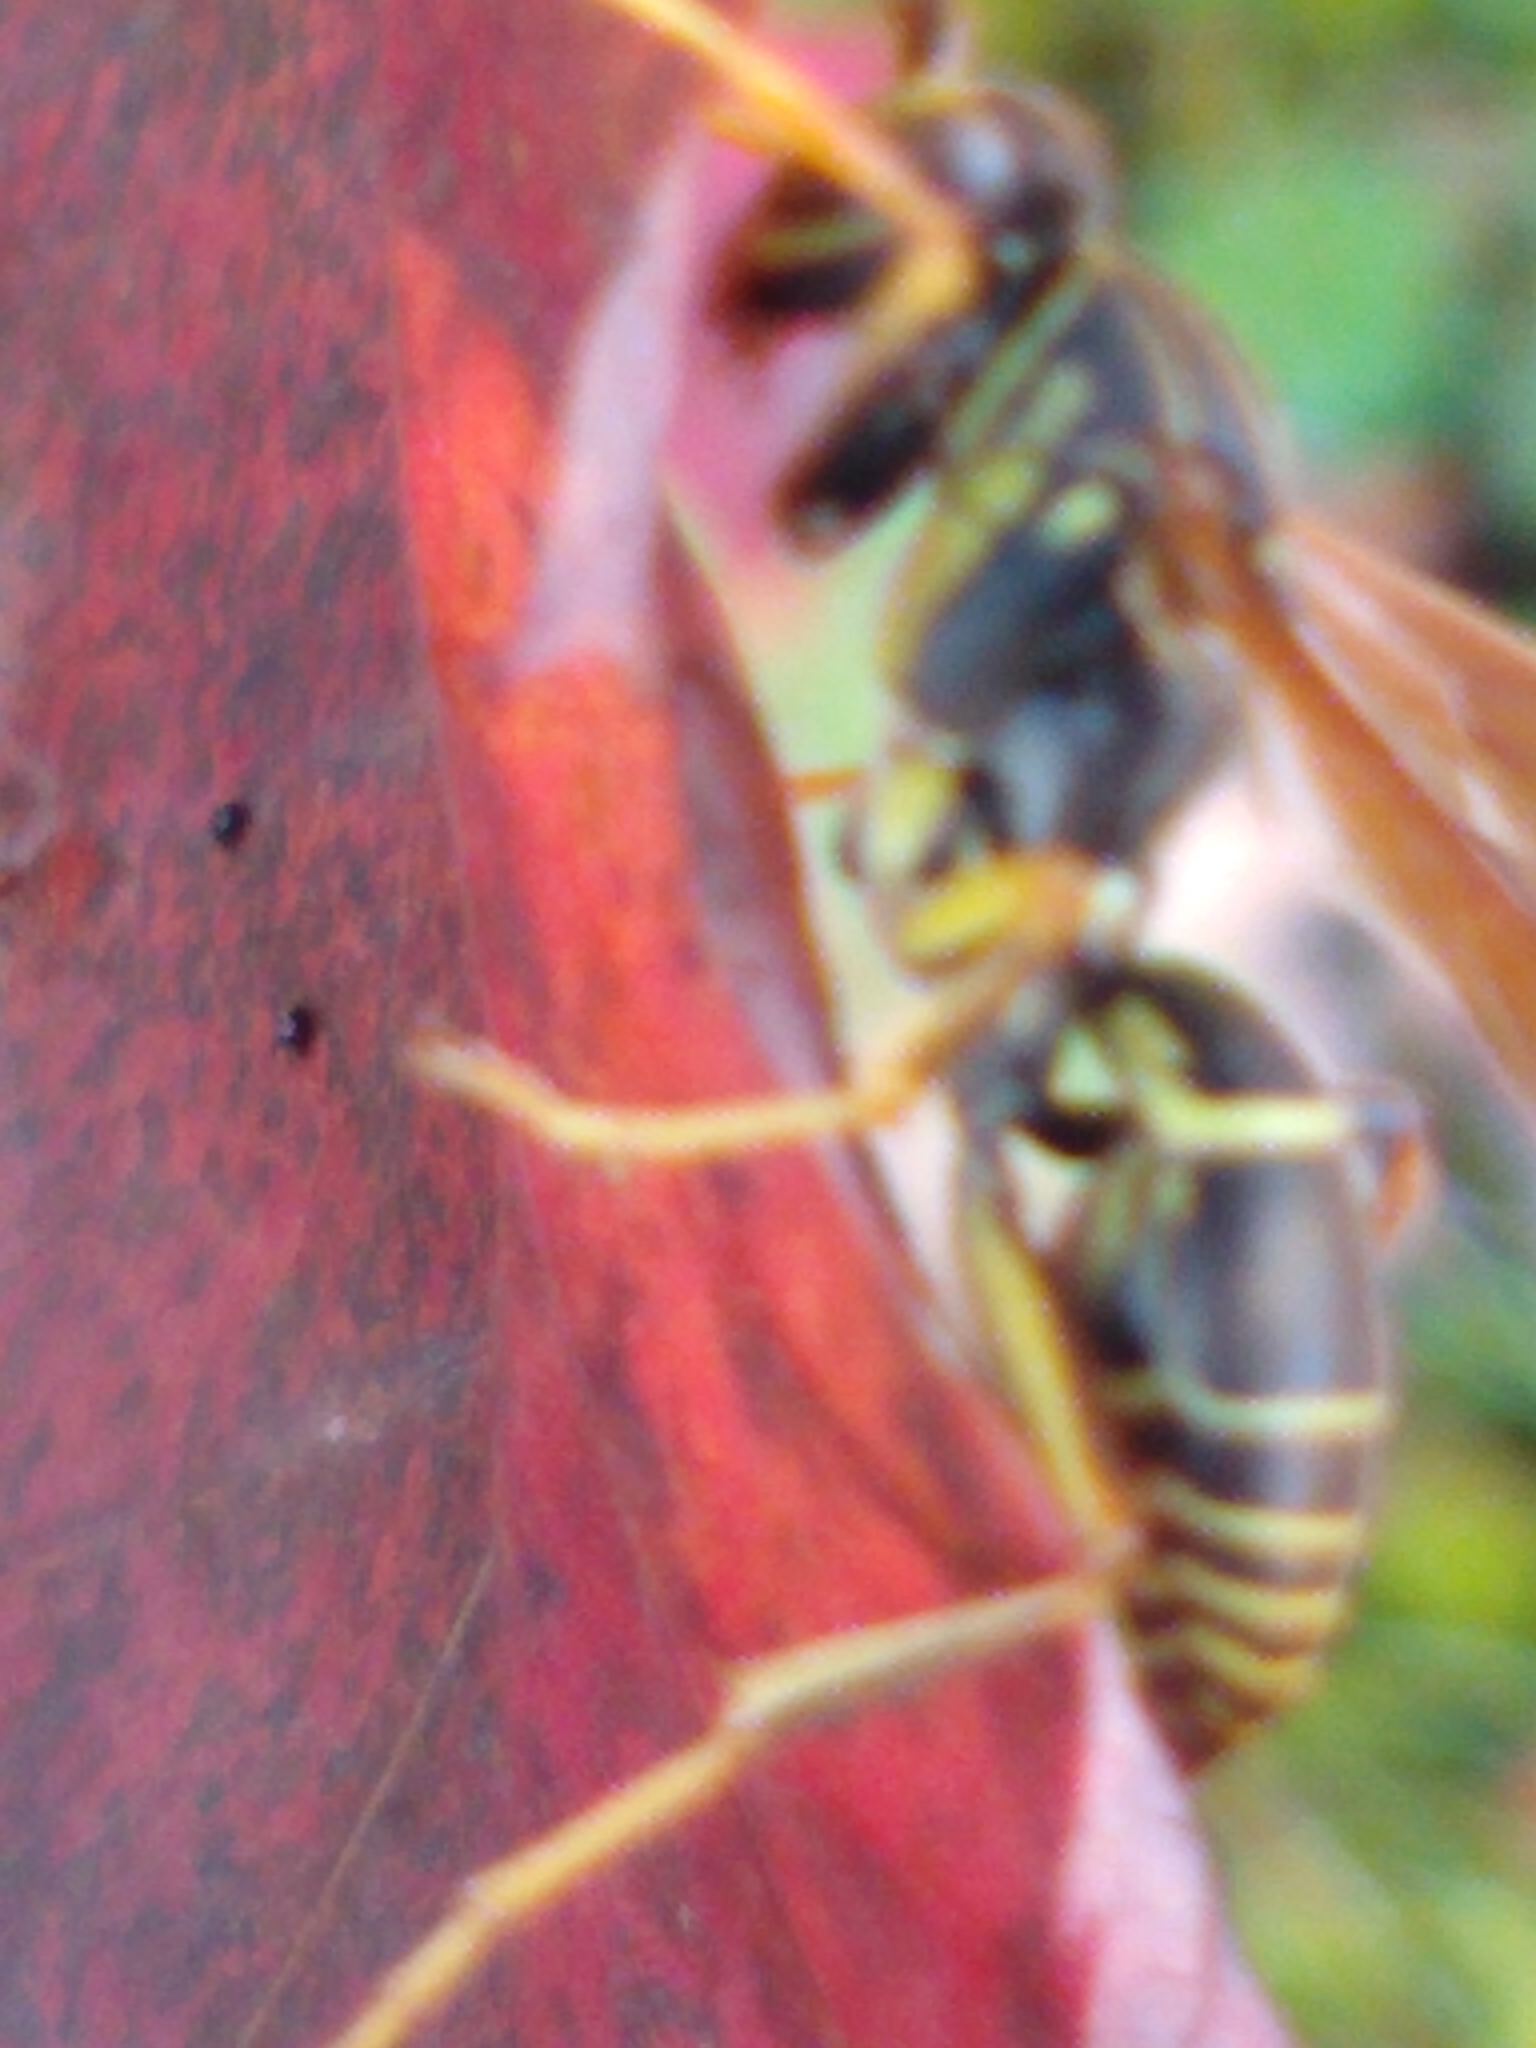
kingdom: Animalia
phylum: Arthropoda
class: Insecta
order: Hymenoptera
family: Eumenidae
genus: Polistes
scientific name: Polistes fuscatus
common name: Dark paper wasp
